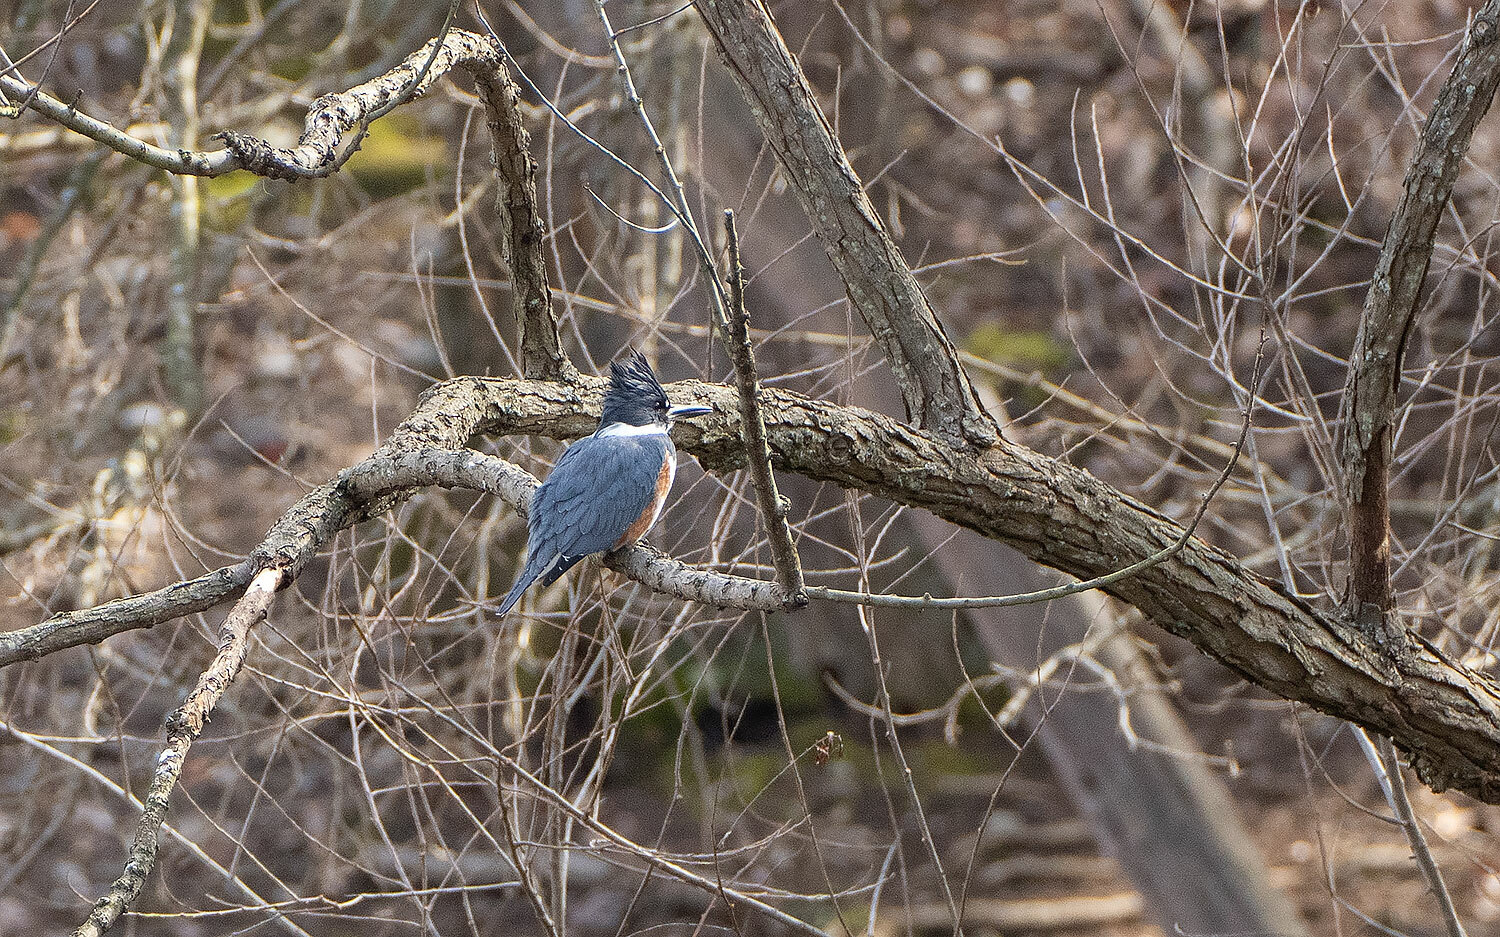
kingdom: Animalia
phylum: Chordata
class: Aves
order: Coraciiformes
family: Alcedinidae
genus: Megaceryle
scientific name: Megaceryle alcyon
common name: Belted kingfisher
